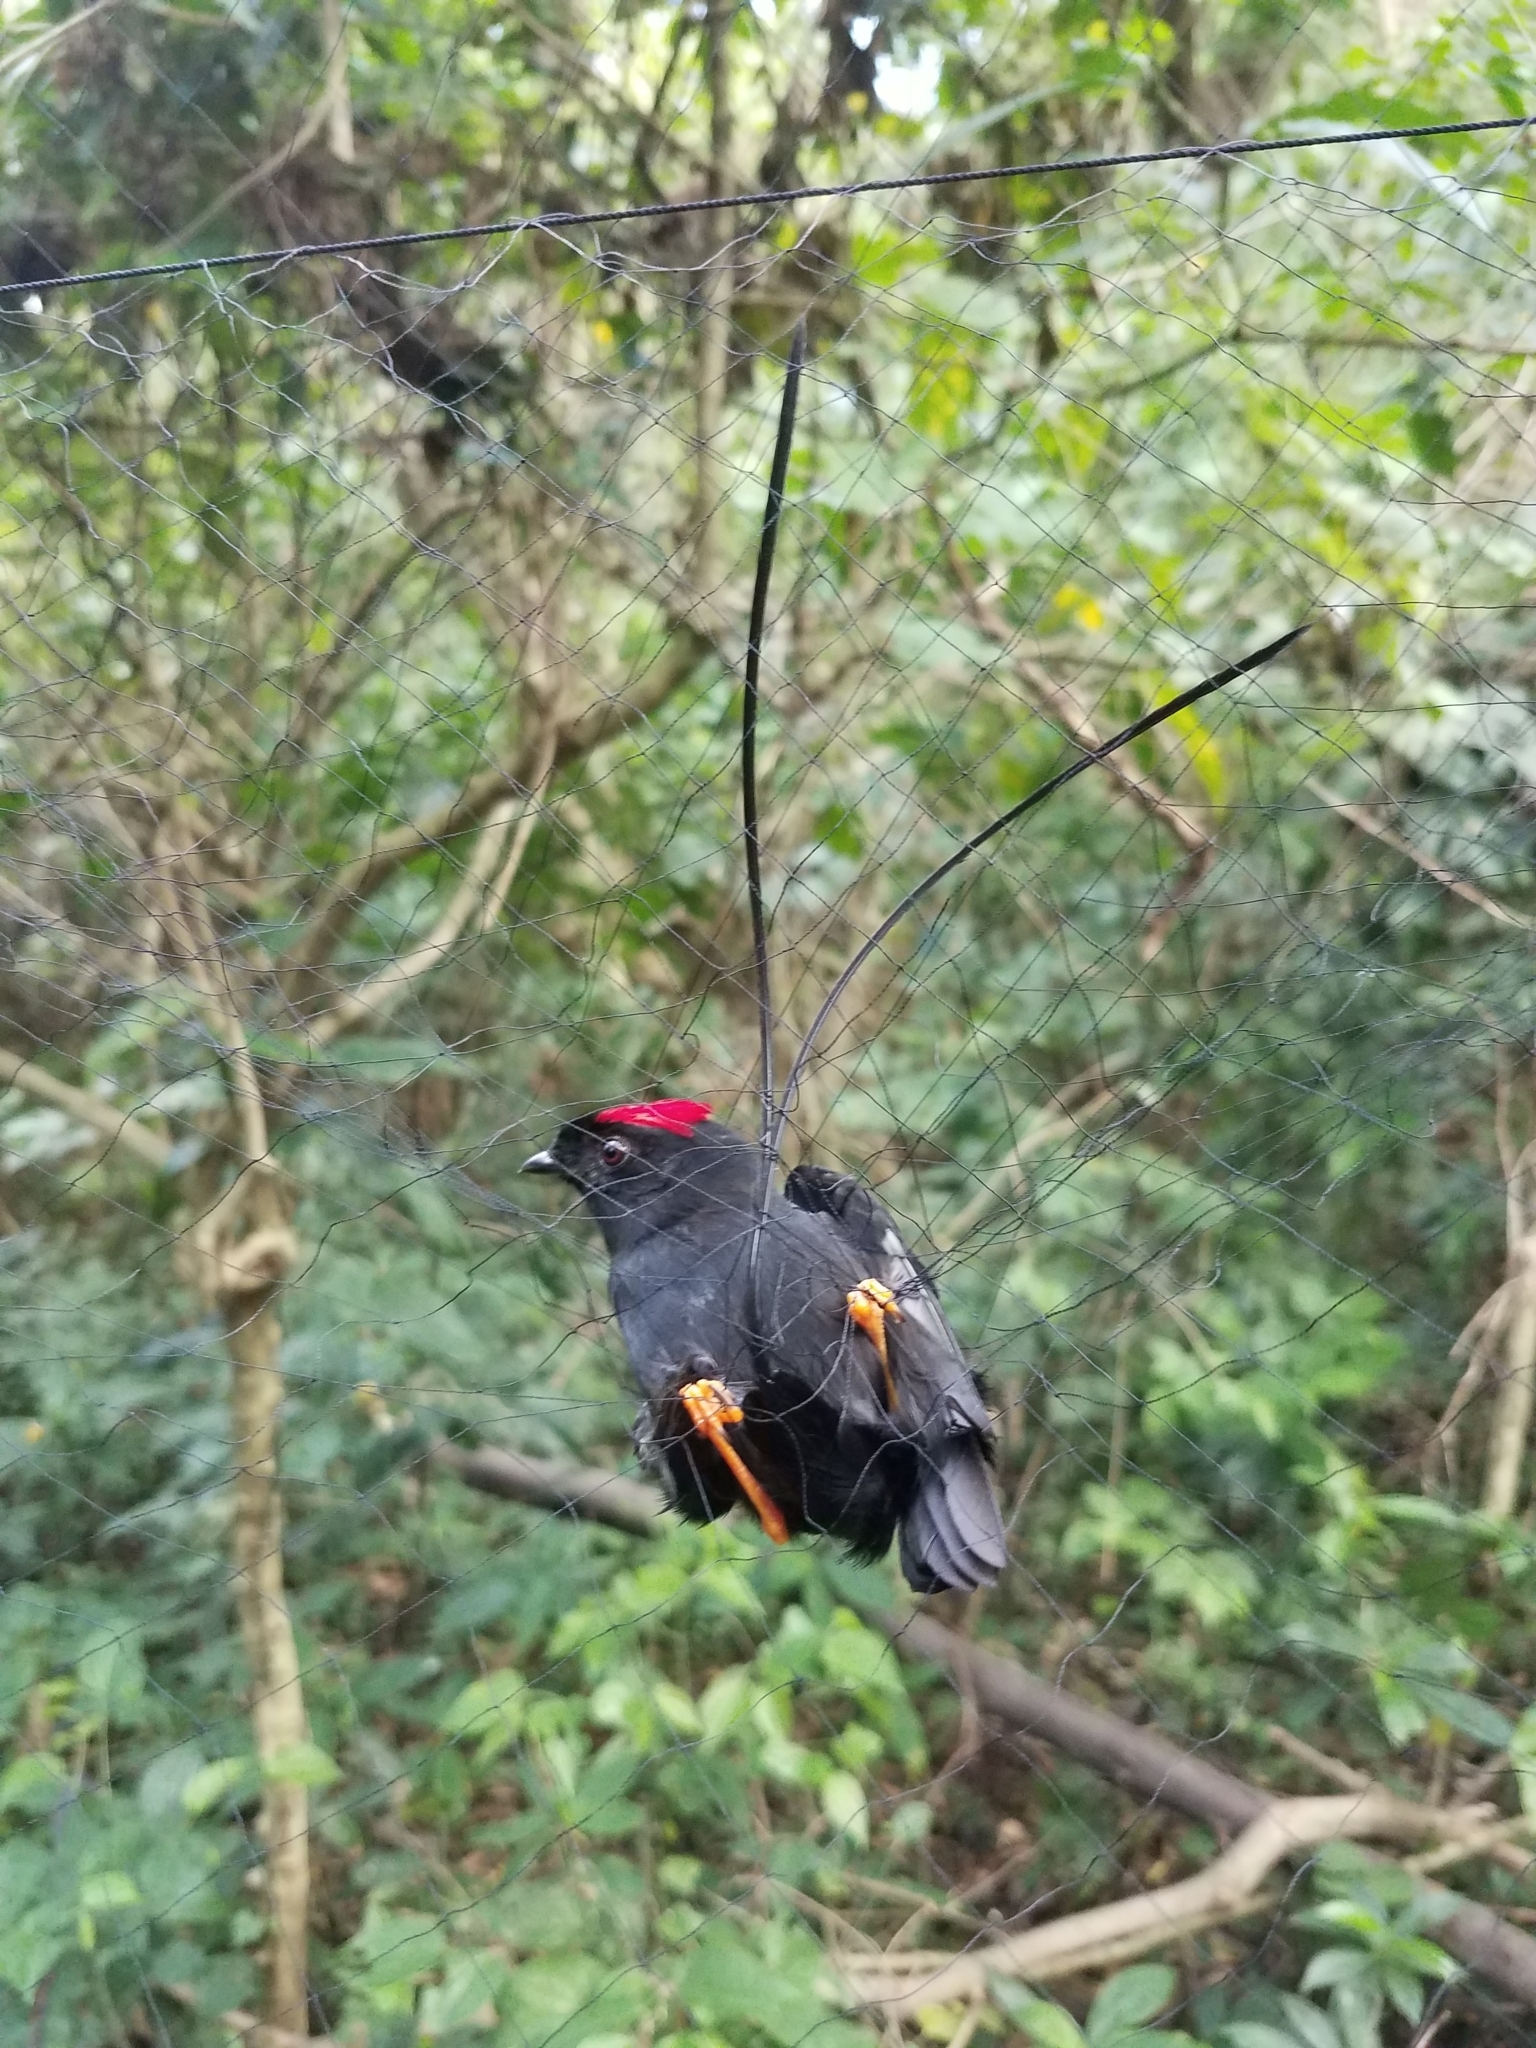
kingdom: Animalia
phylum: Chordata
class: Aves
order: Passeriformes
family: Pipridae
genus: Chiroxiphia
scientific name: Chiroxiphia linearis
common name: Long-tailed manakin
